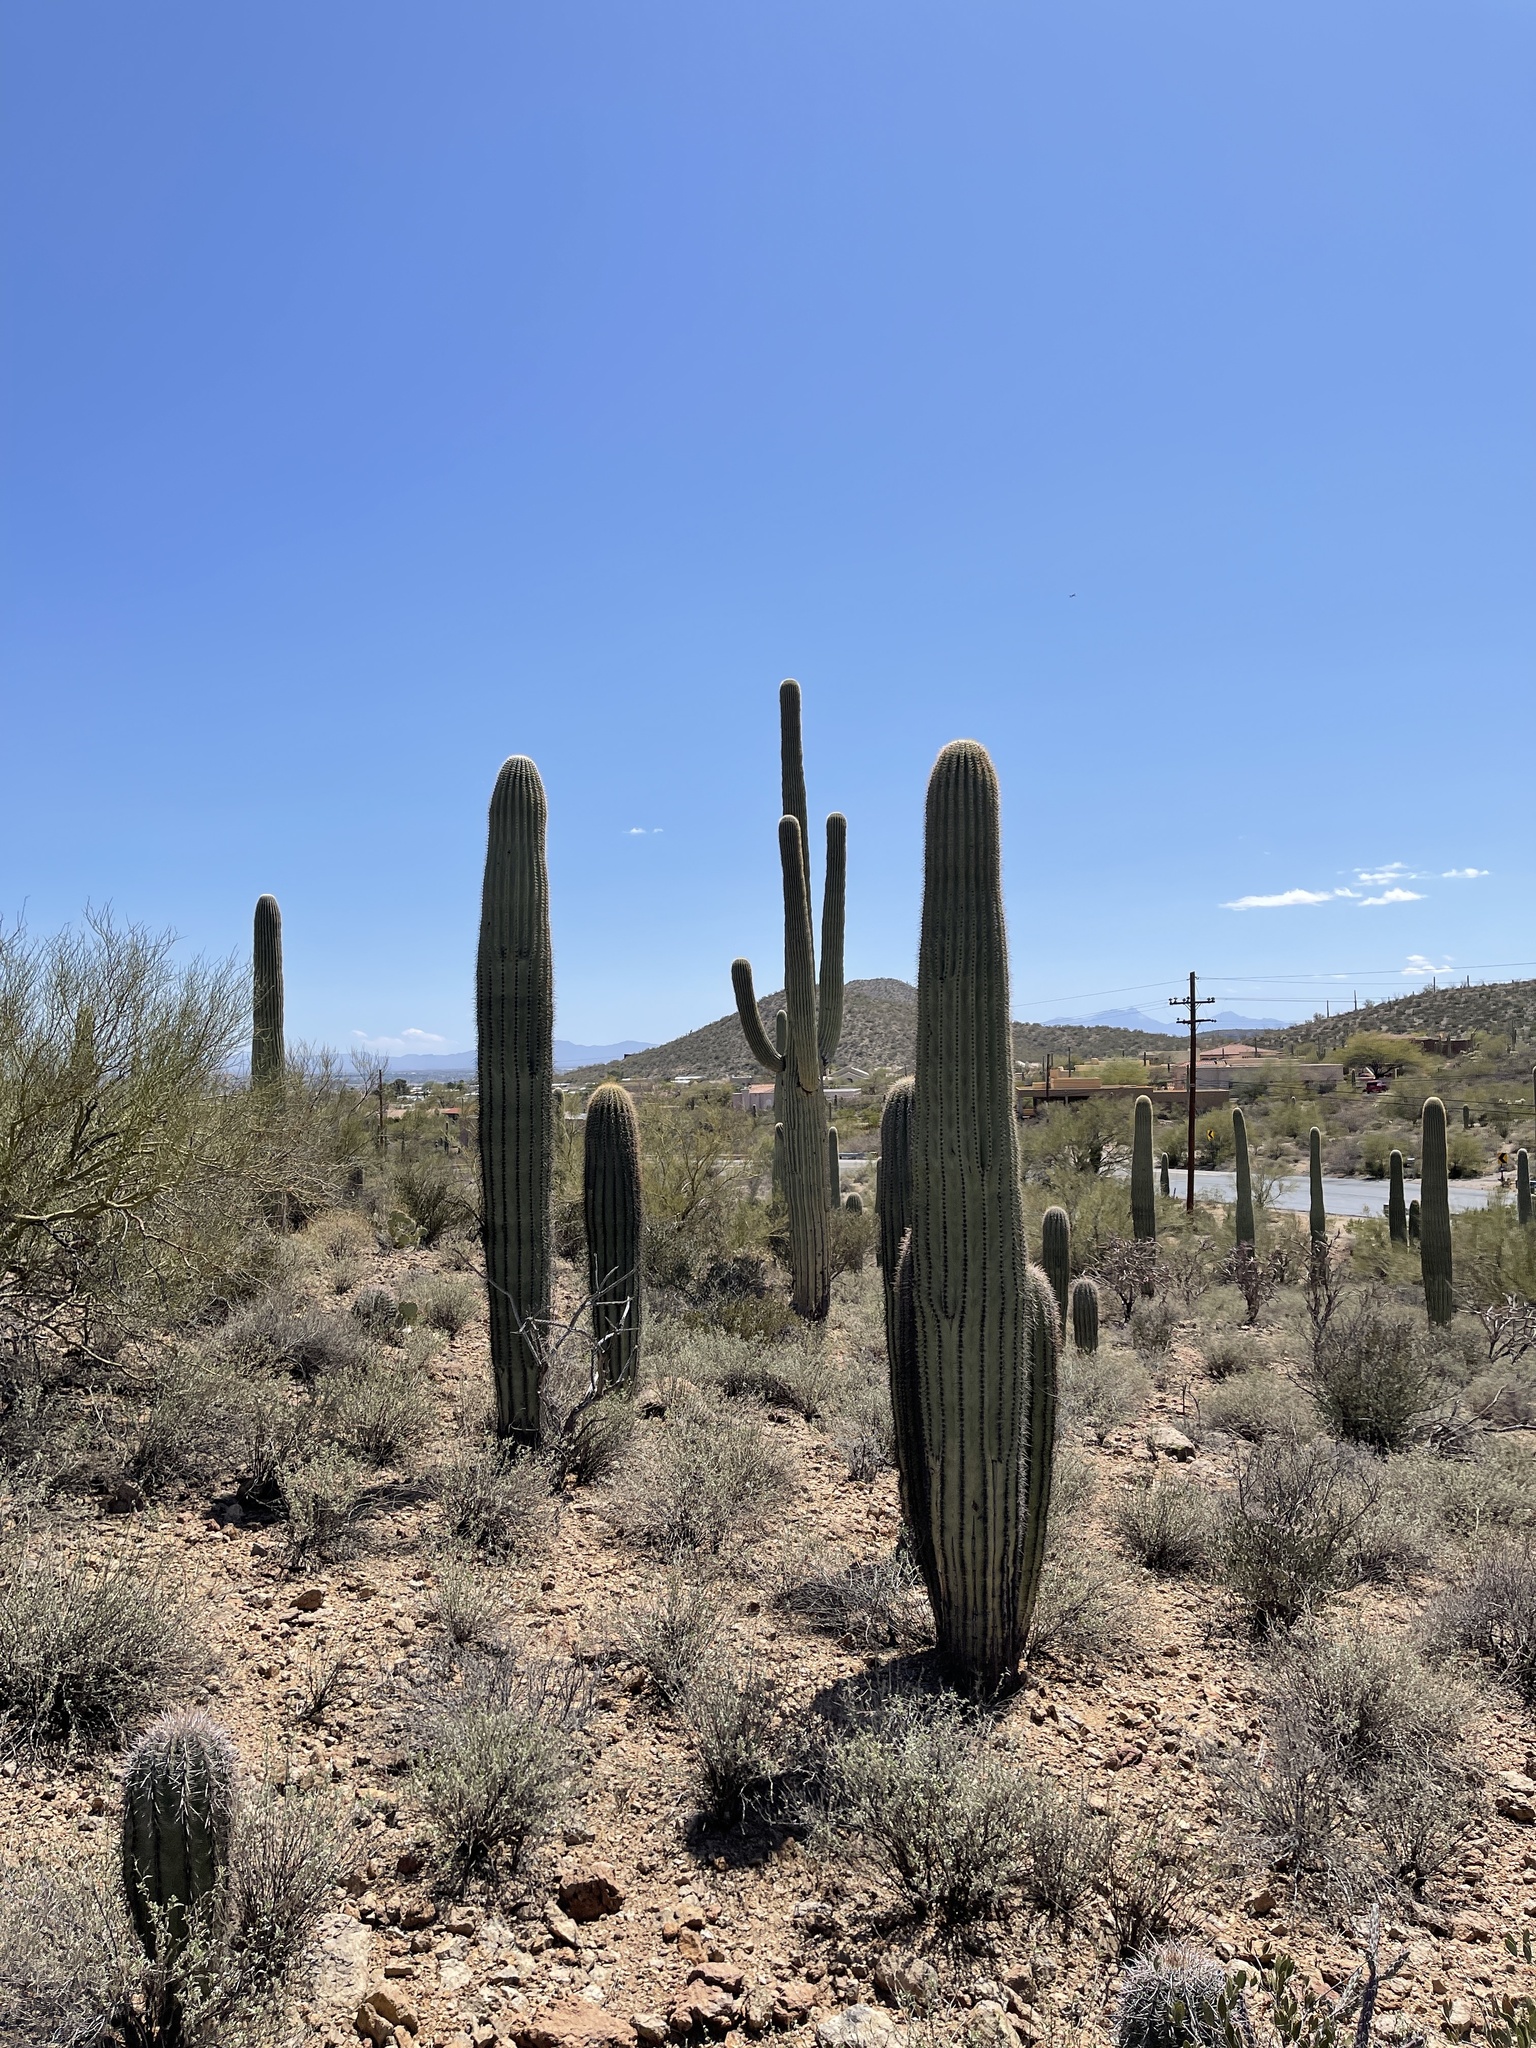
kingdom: Plantae
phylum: Tracheophyta
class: Magnoliopsida
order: Caryophyllales
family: Cactaceae
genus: Carnegiea
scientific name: Carnegiea gigantea
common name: Saguaro
